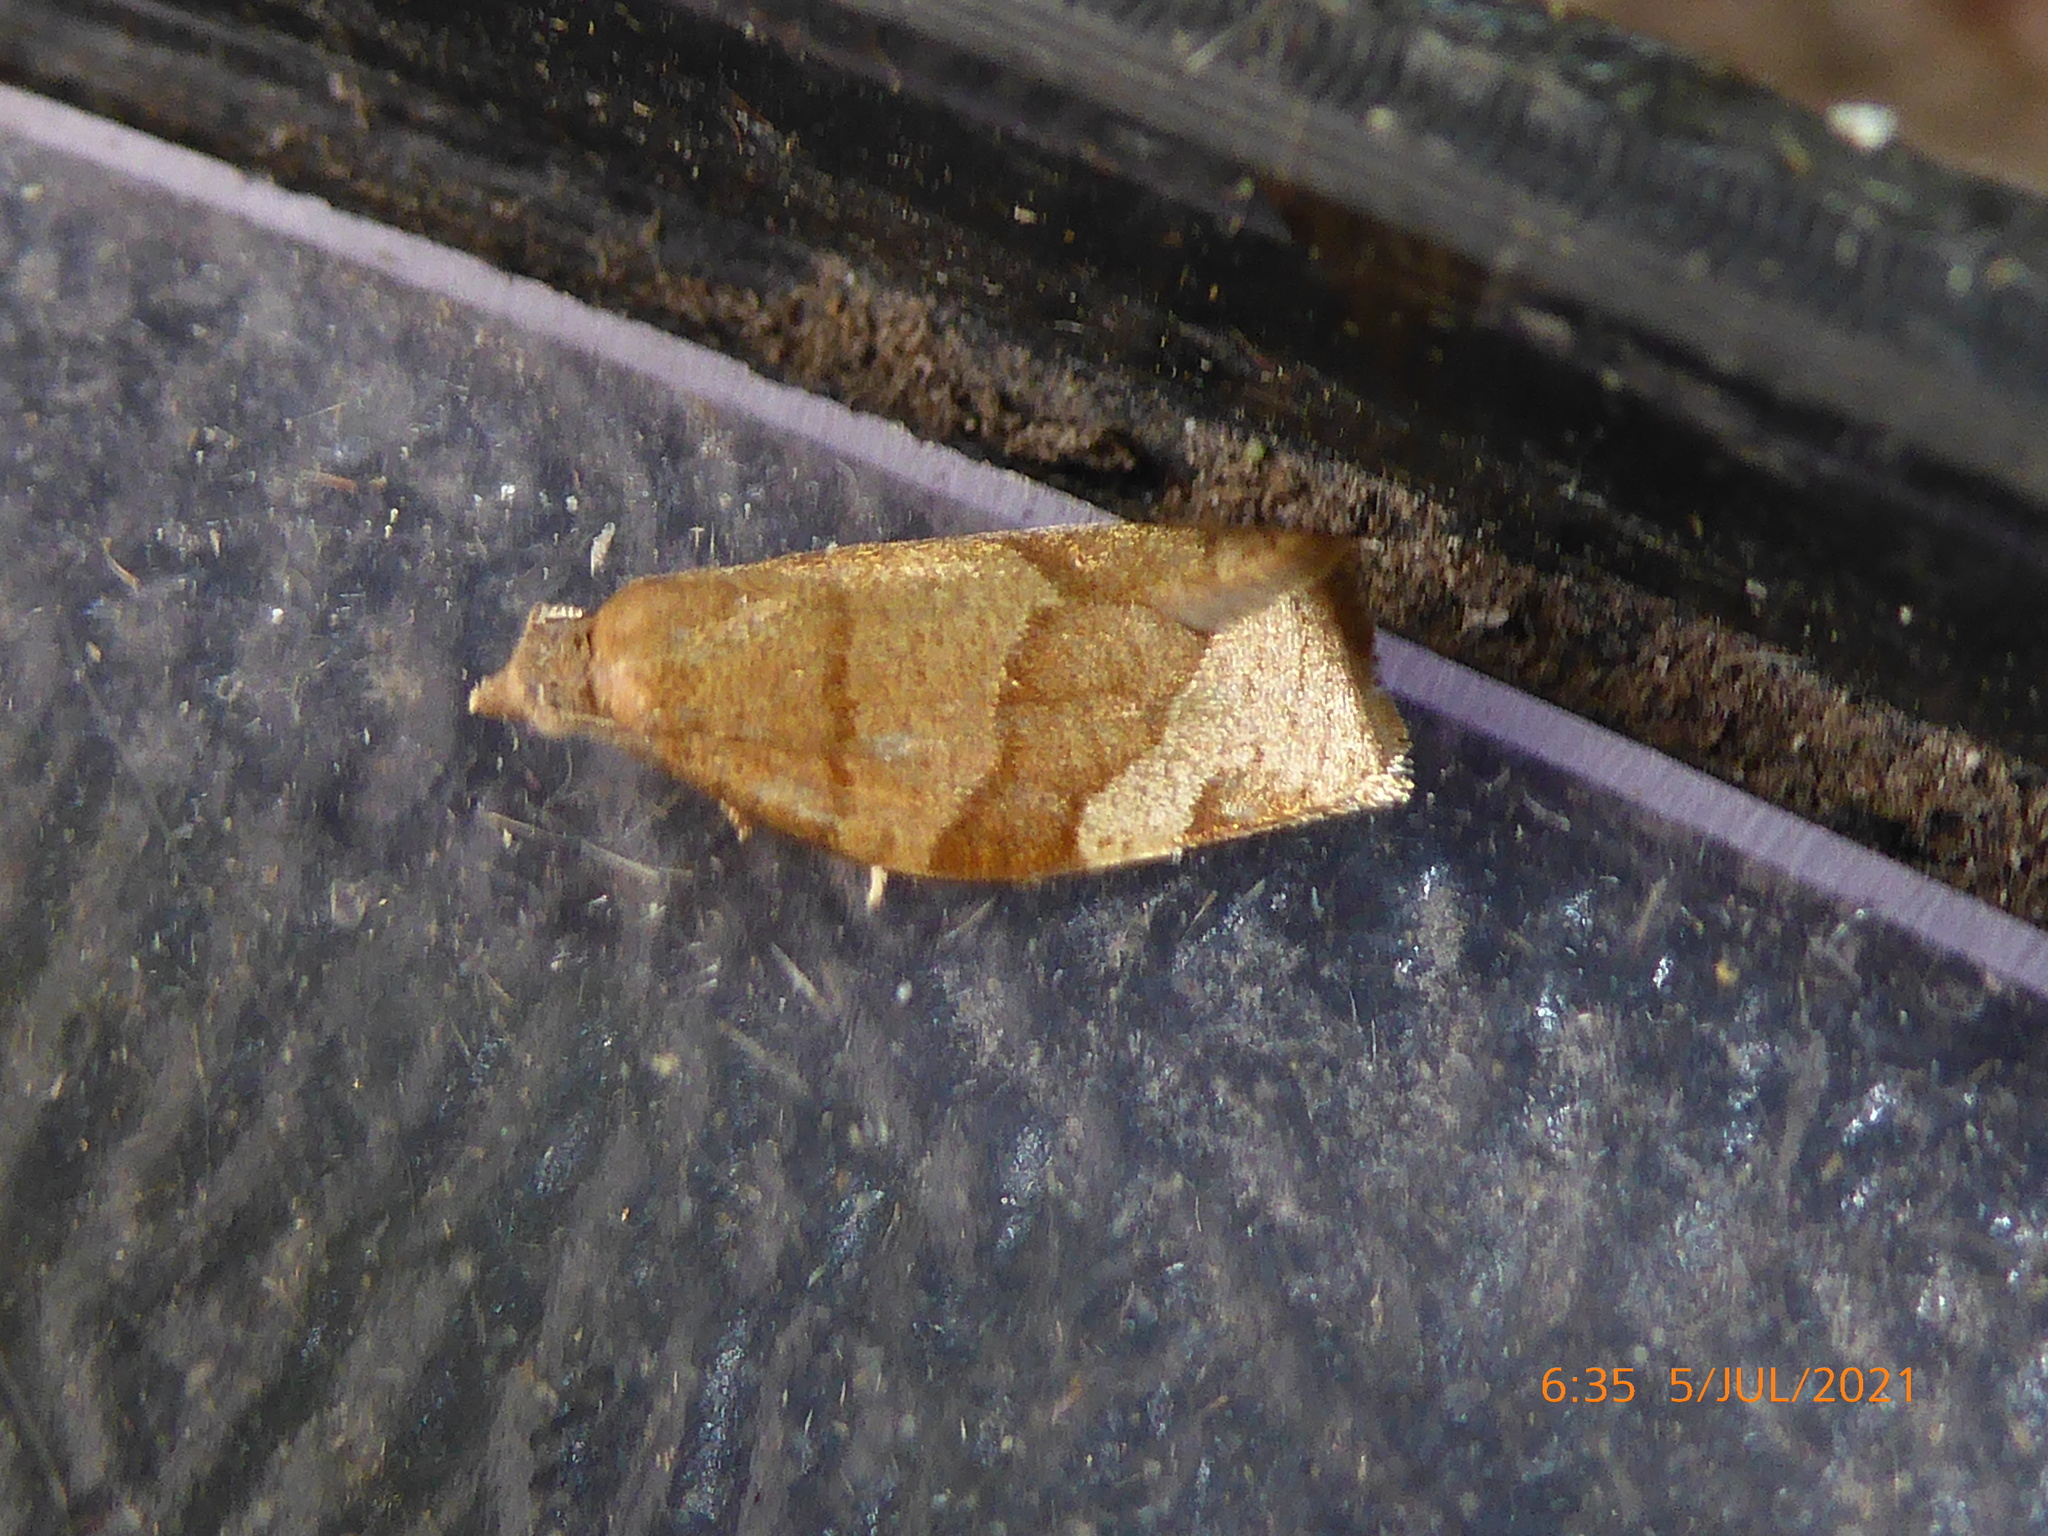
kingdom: Animalia
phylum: Arthropoda
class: Insecta
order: Lepidoptera
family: Tortricidae
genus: Pandemis
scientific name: Pandemis cerasana
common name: Barred fruit-tree tortrix
